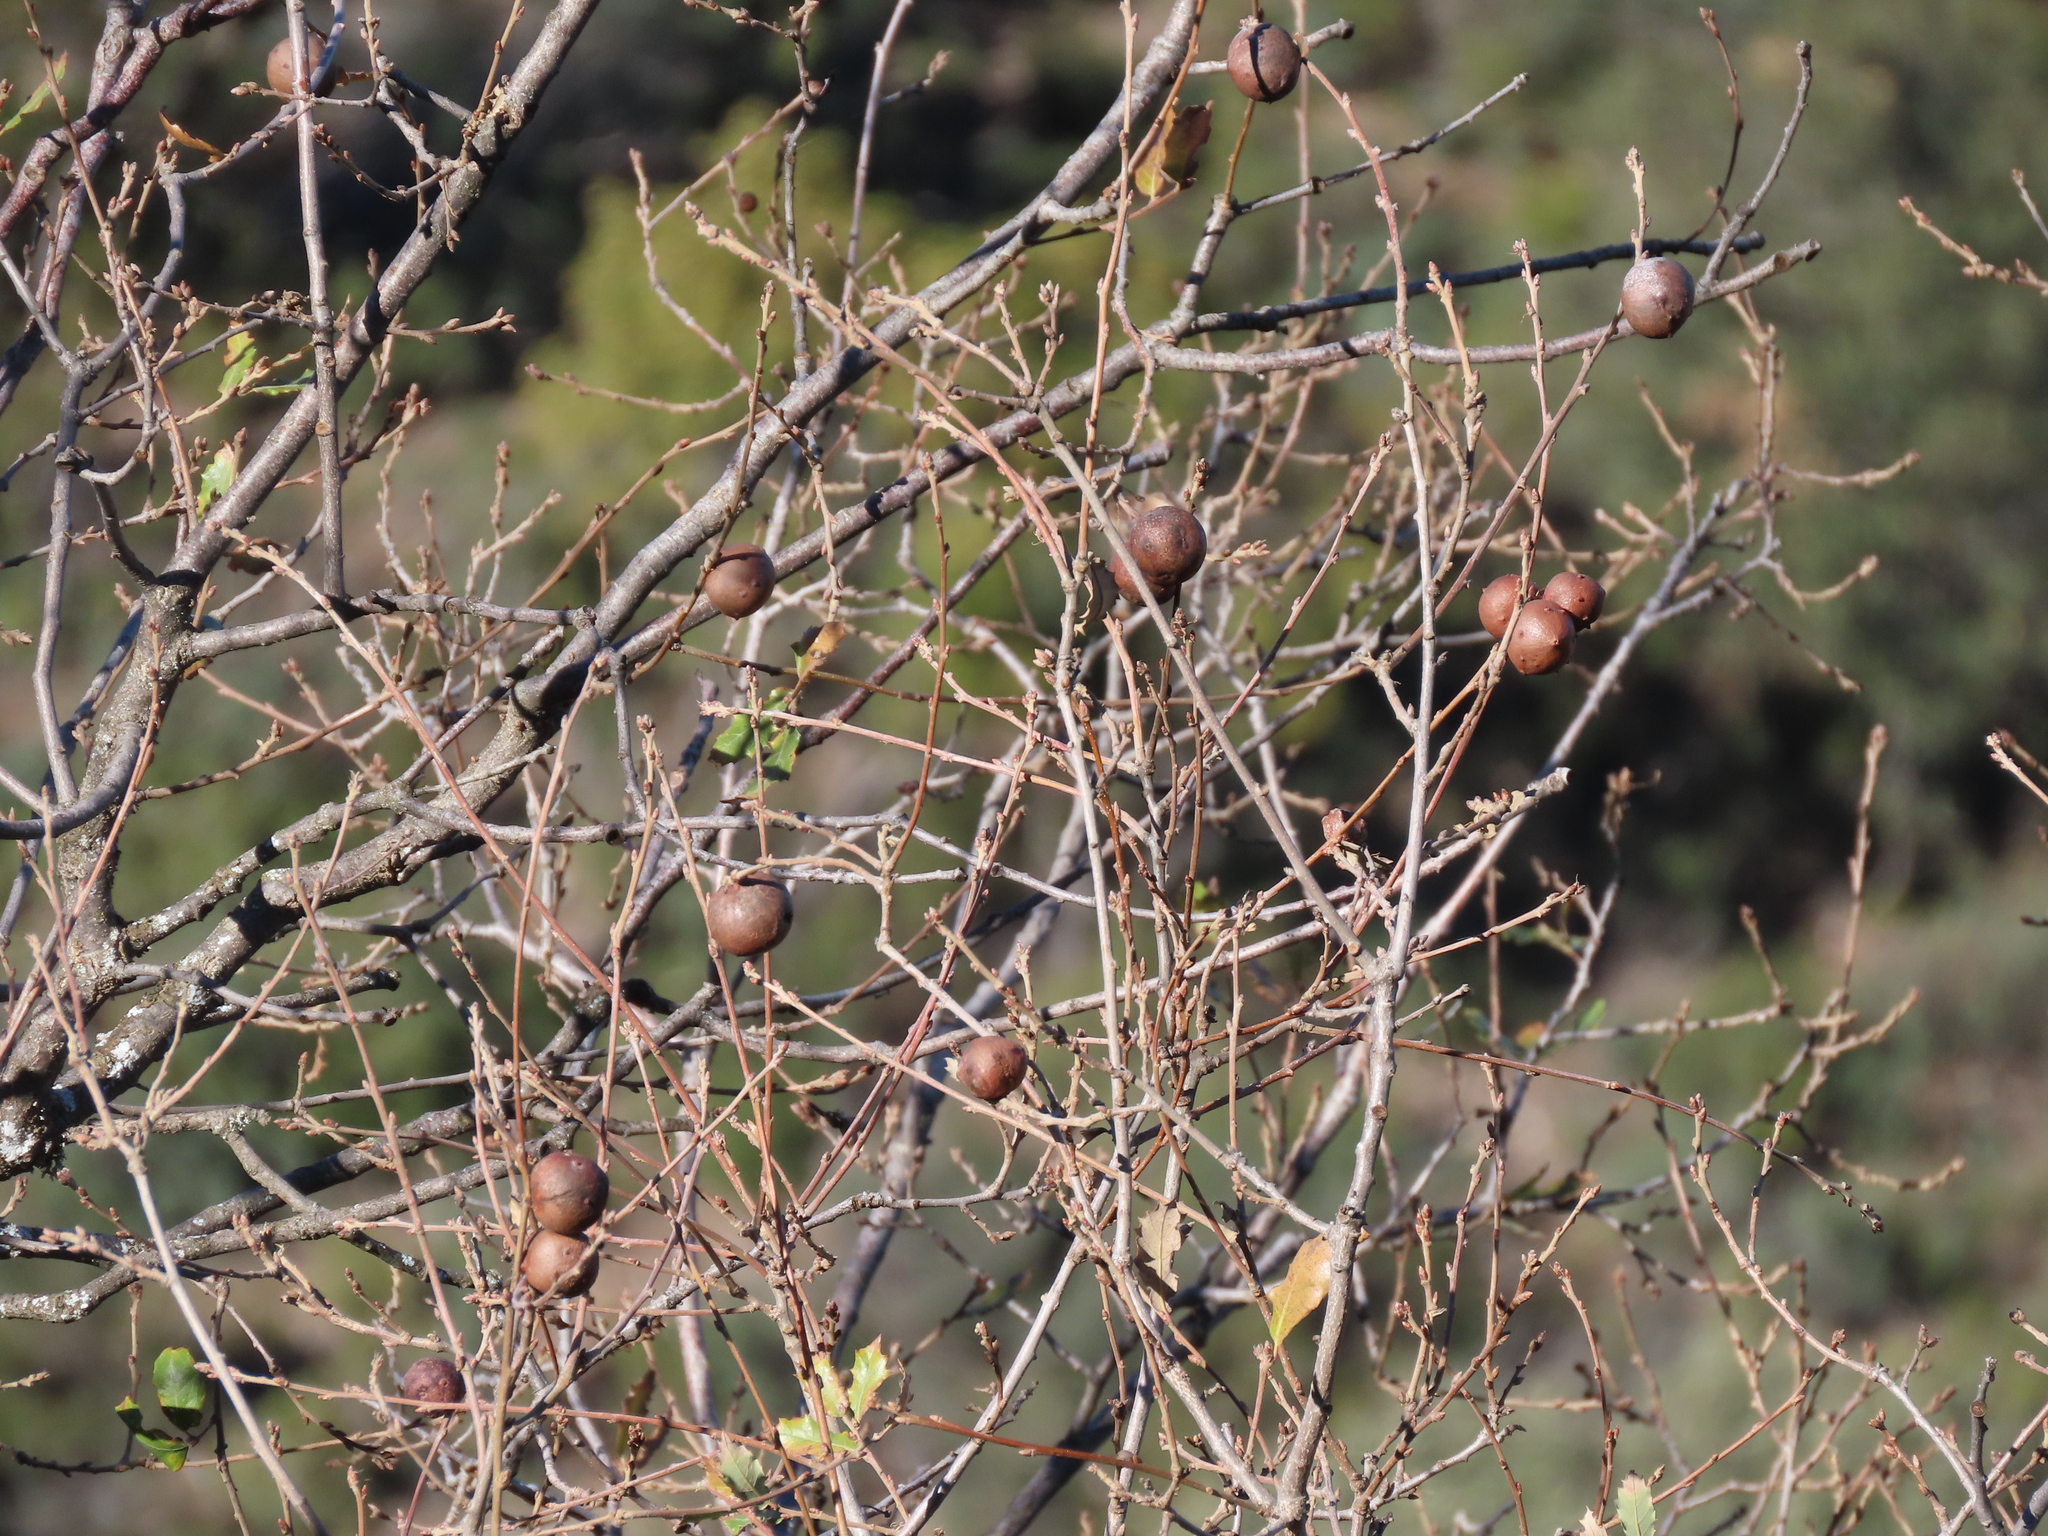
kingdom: Animalia
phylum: Arthropoda
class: Insecta
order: Hymenoptera
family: Cynipidae
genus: Andricus
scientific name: Andricus quercustozae
